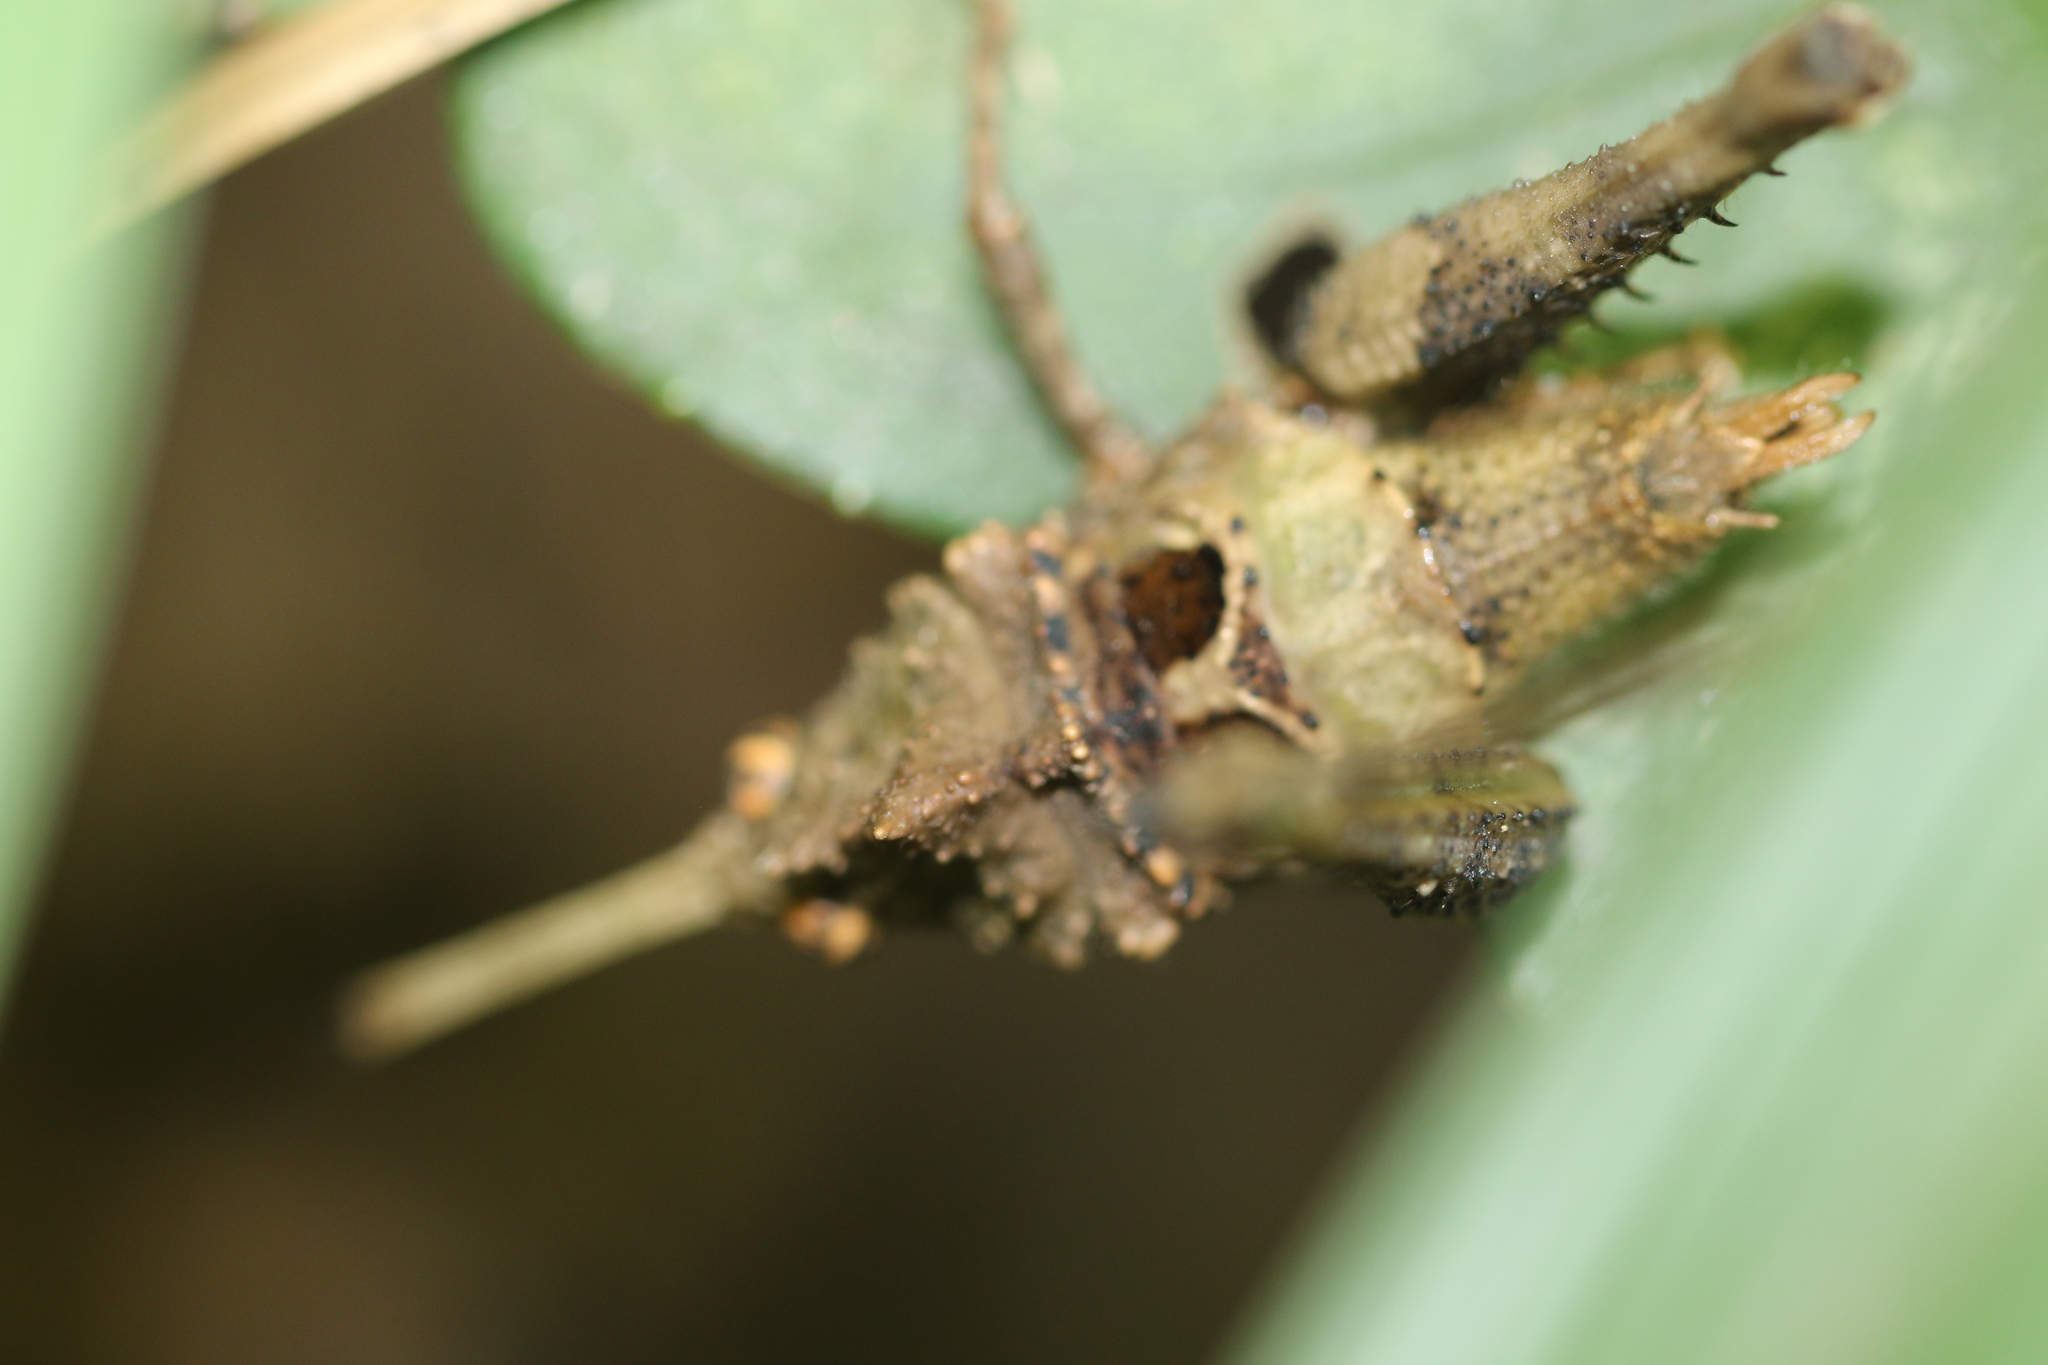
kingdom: Animalia
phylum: Arthropoda
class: Insecta
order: Orthoptera
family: Acrididae
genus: Pycnosarcus
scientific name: Pycnosarcus atavus
